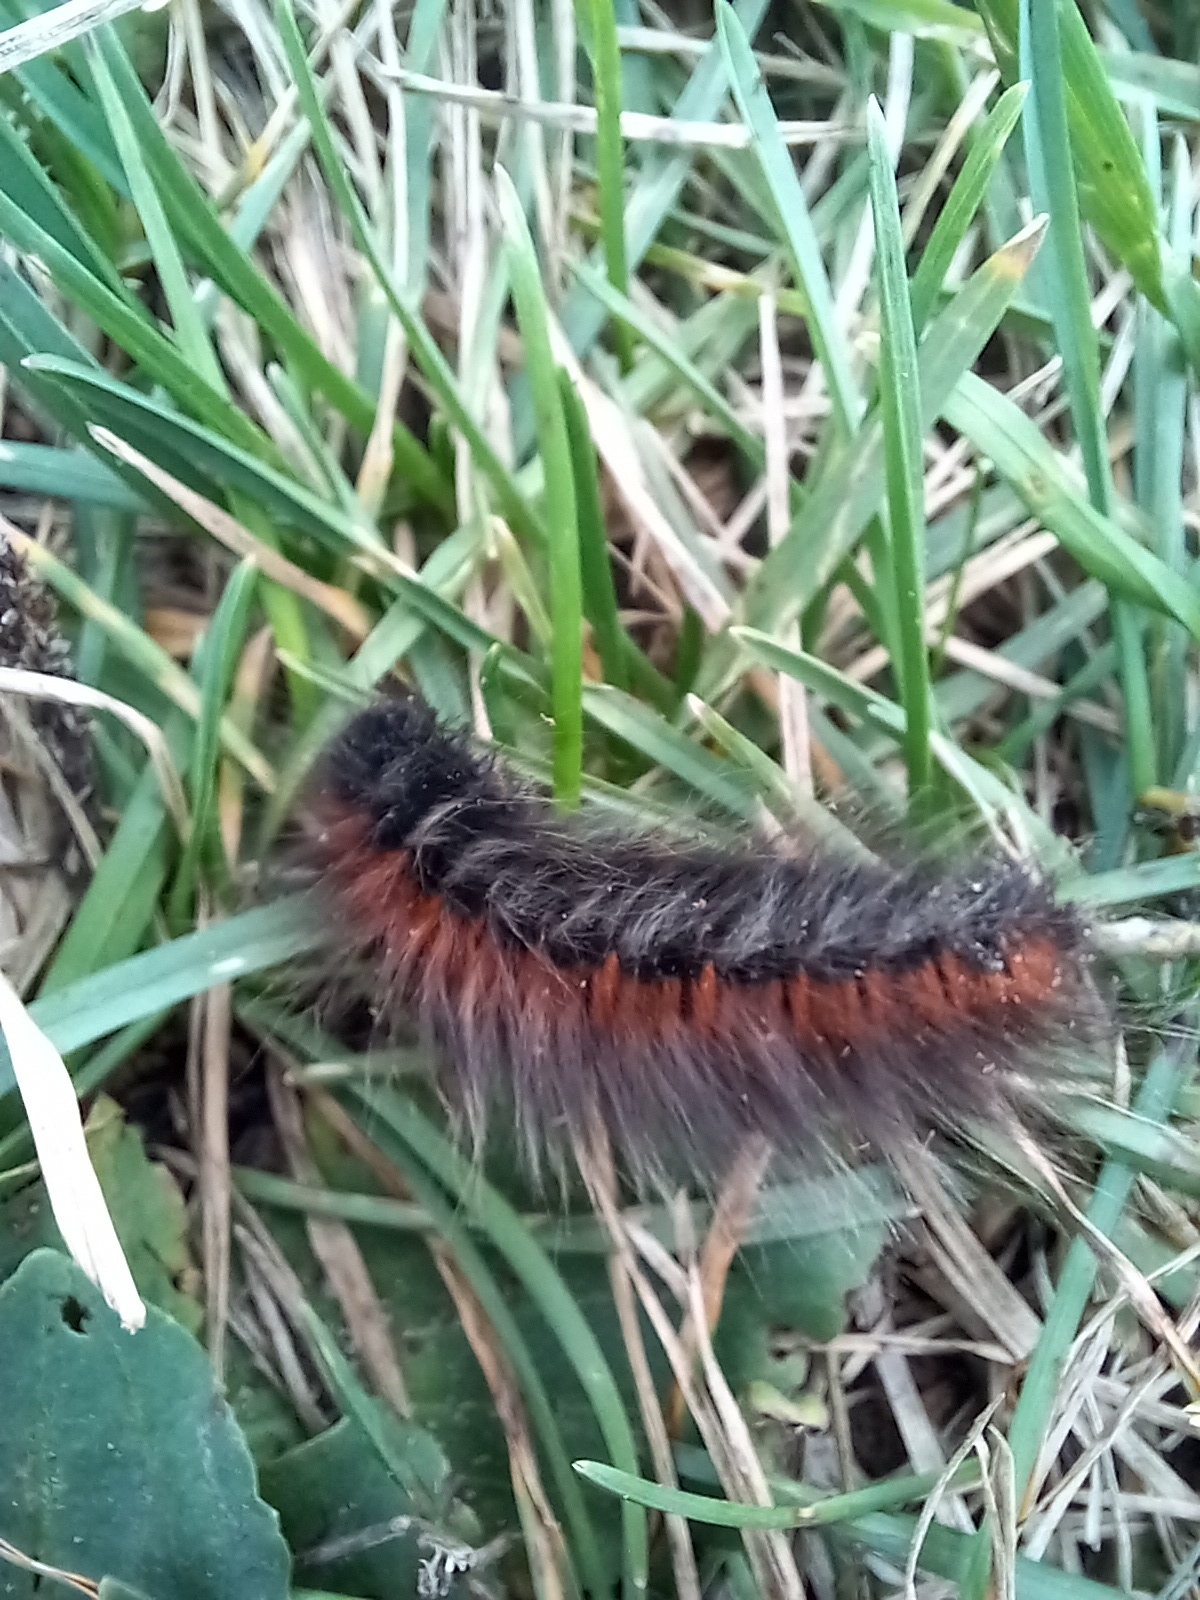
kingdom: Animalia
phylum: Arthropoda
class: Insecta
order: Lepidoptera
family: Lasiocampidae
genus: Macrothylacia
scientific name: Macrothylacia rubi
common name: Fox moth
